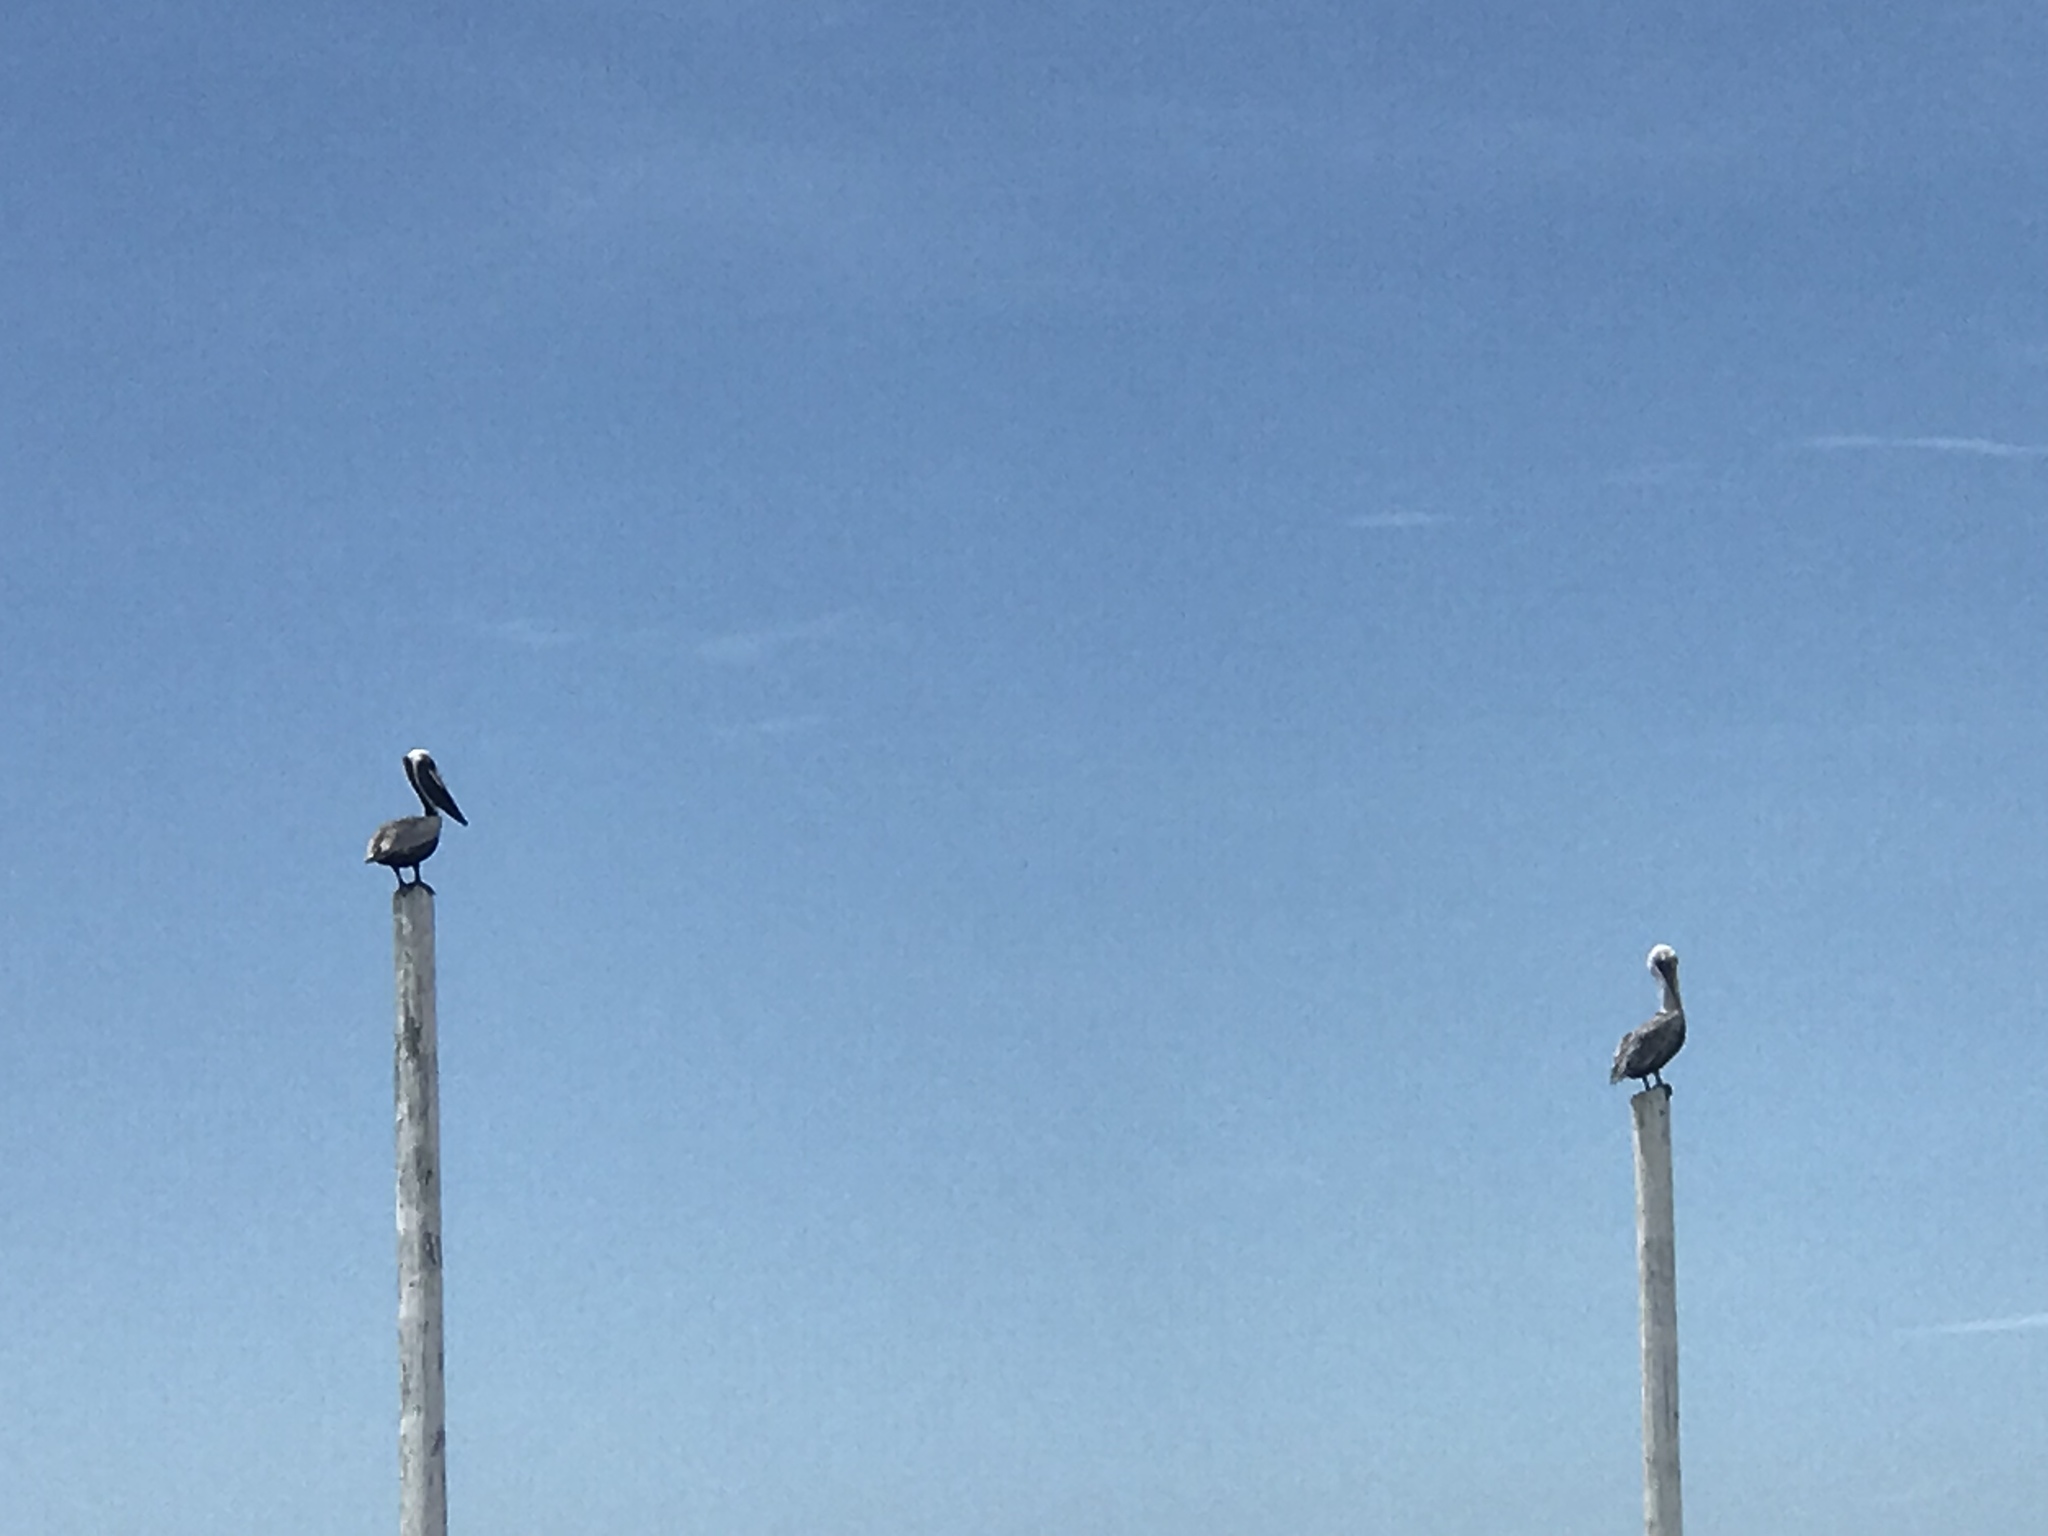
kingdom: Animalia
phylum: Chordata
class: Aves
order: Pelecaniformes
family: Pelecanidae
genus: Pelecanus
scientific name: Pelecanus occidentalis
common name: Brown pelican
